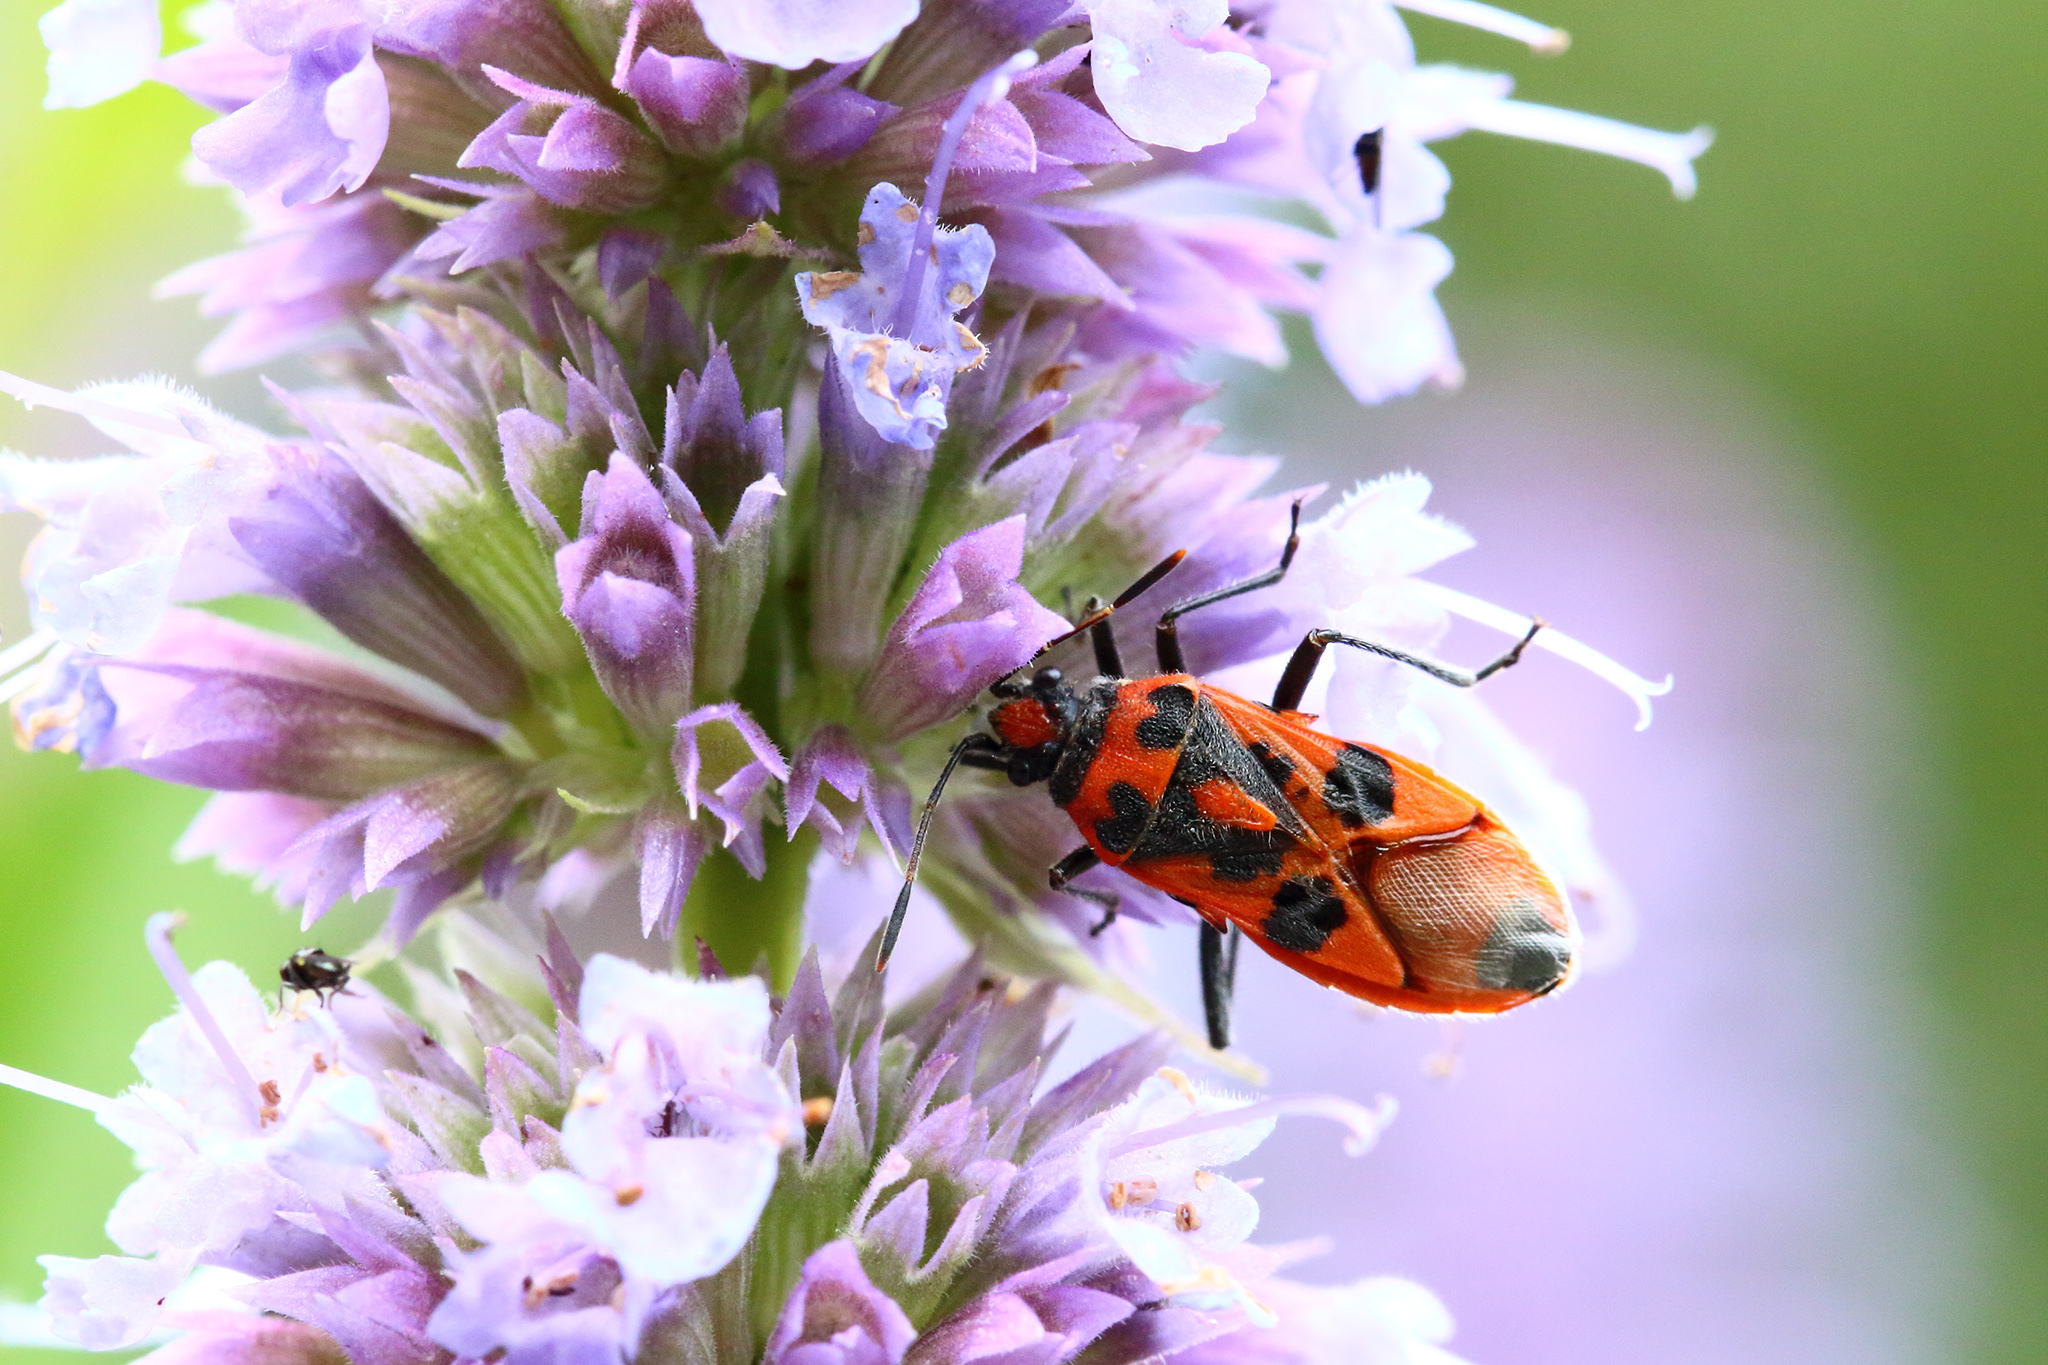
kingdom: Animalia
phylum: Arthropoda
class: Insecta
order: Hemiptera
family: Rhopalidae
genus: Corizus
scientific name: Corizus hyoscyami
